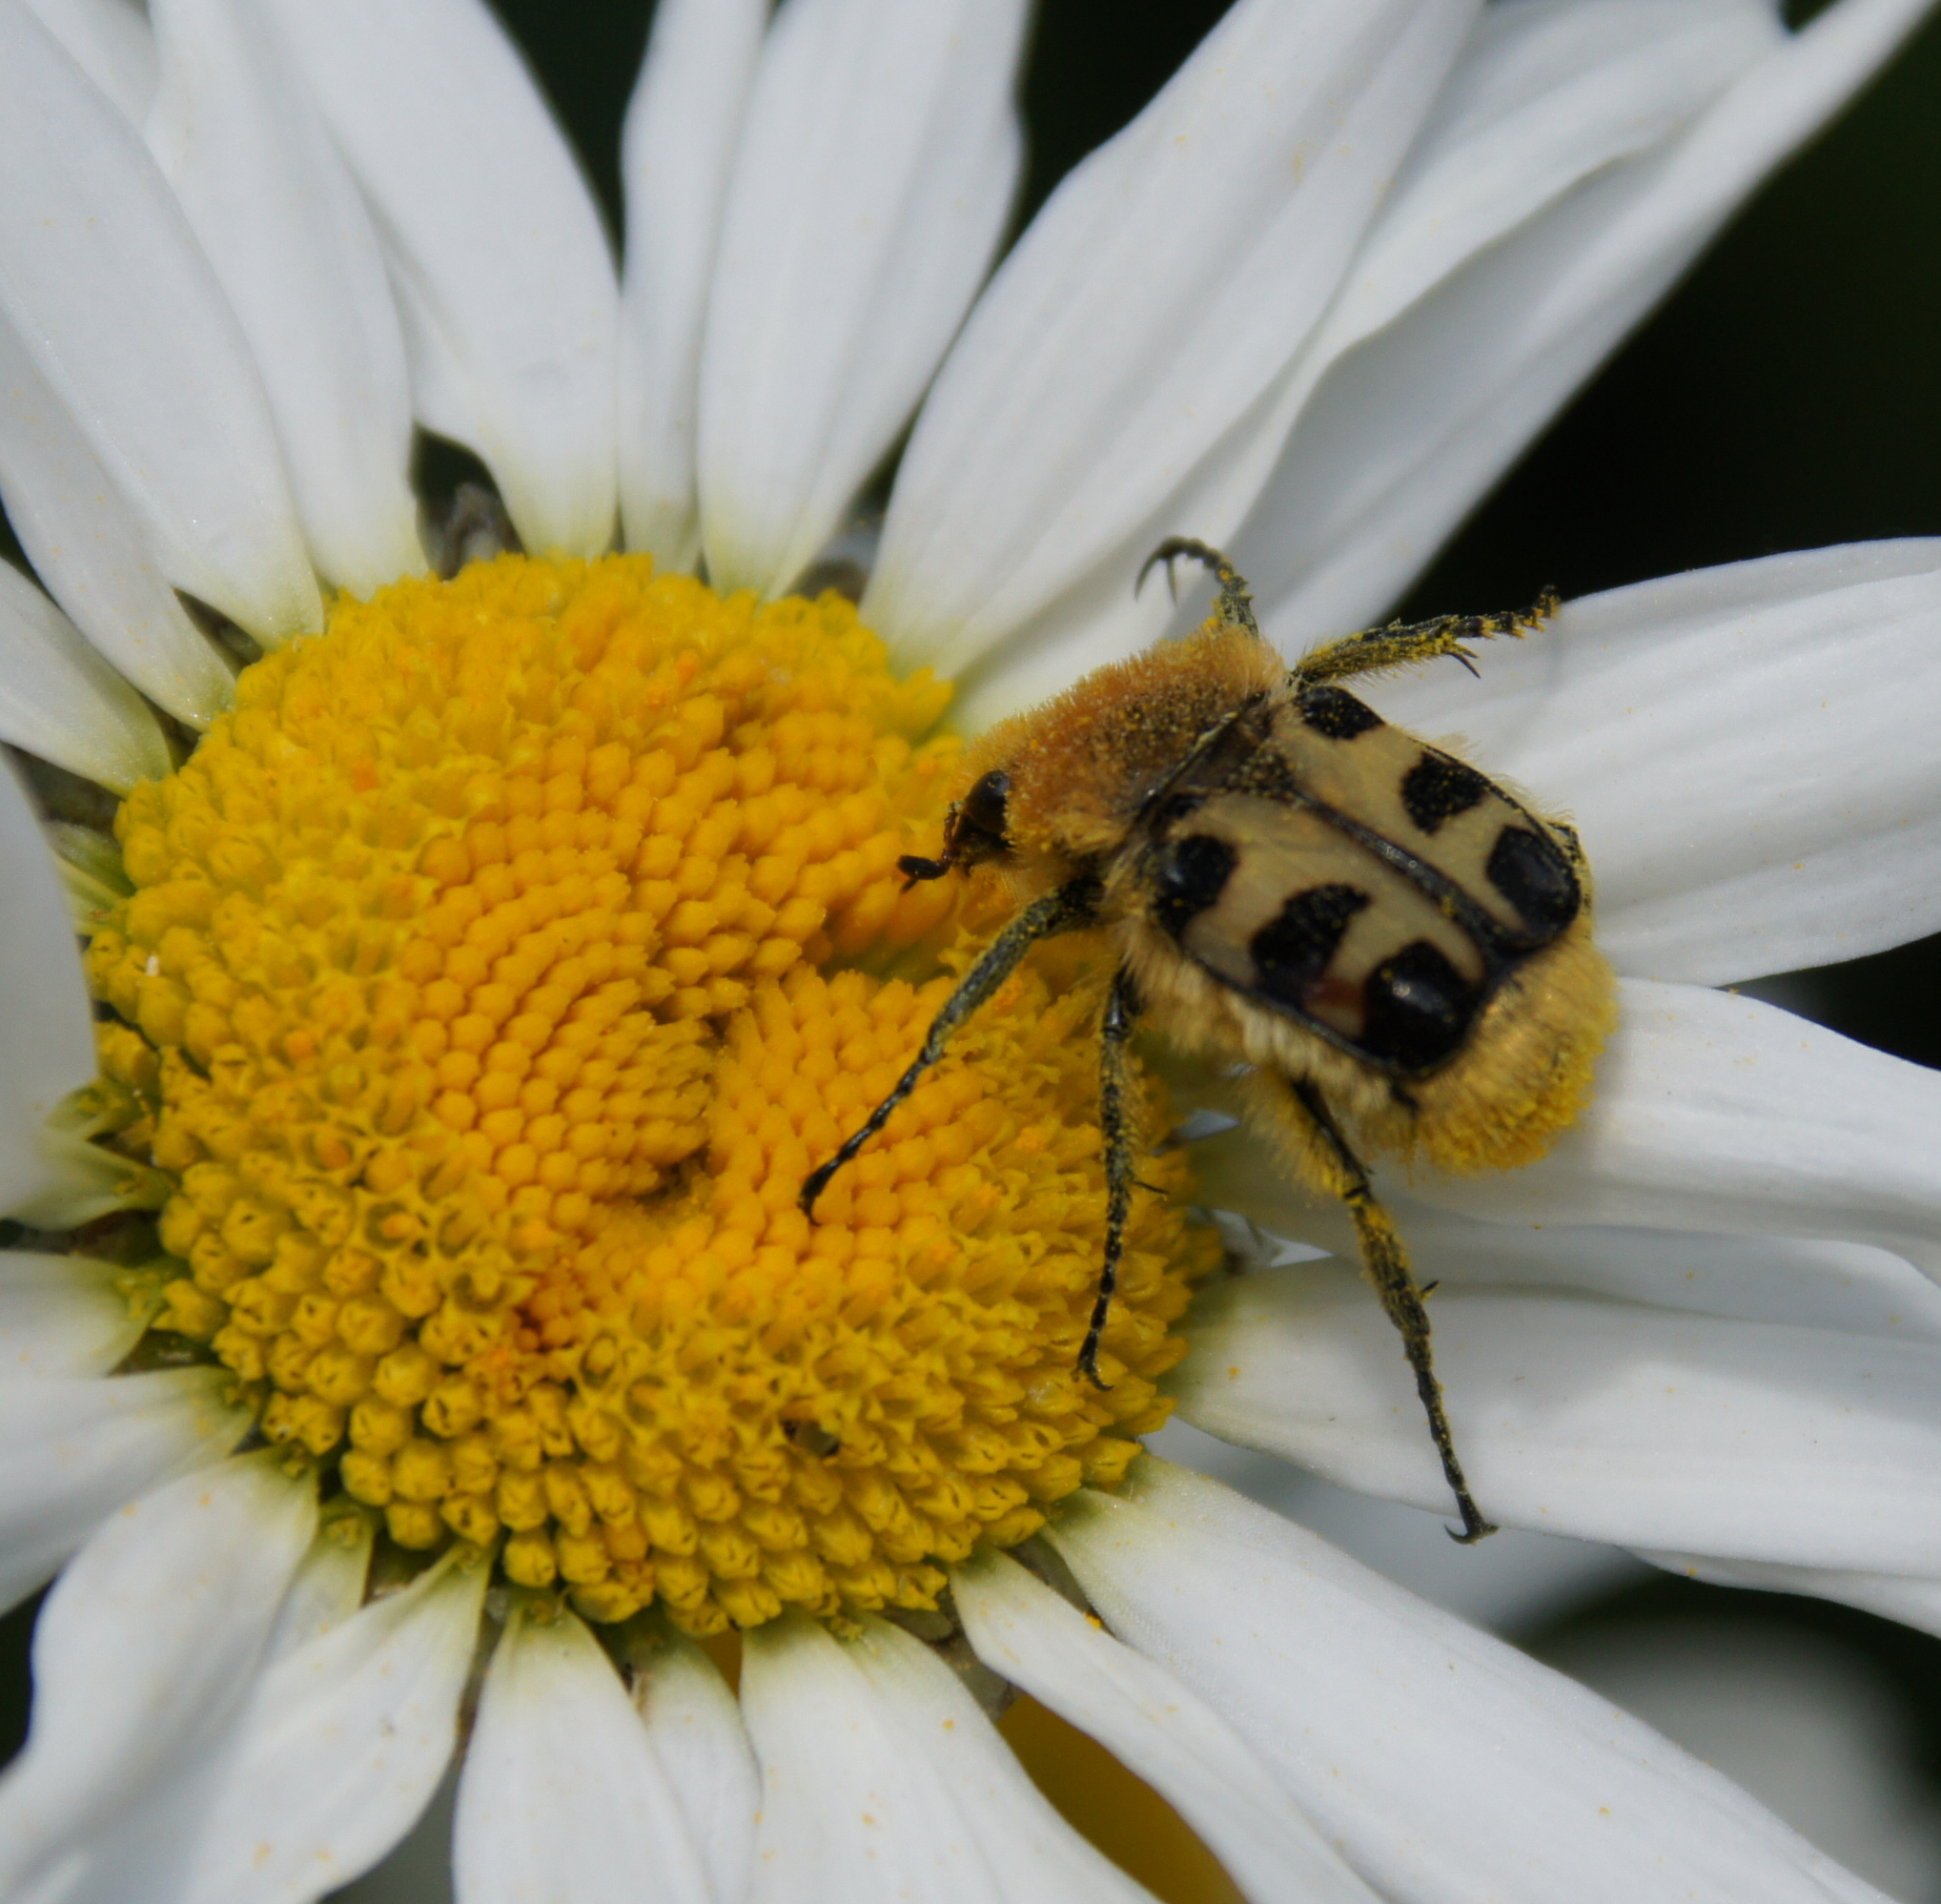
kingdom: Animalia
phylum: Arthropoda
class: Insecta
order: Coleoptera
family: Scarabaeidae
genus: Trichius
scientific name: Trichius gallicus
